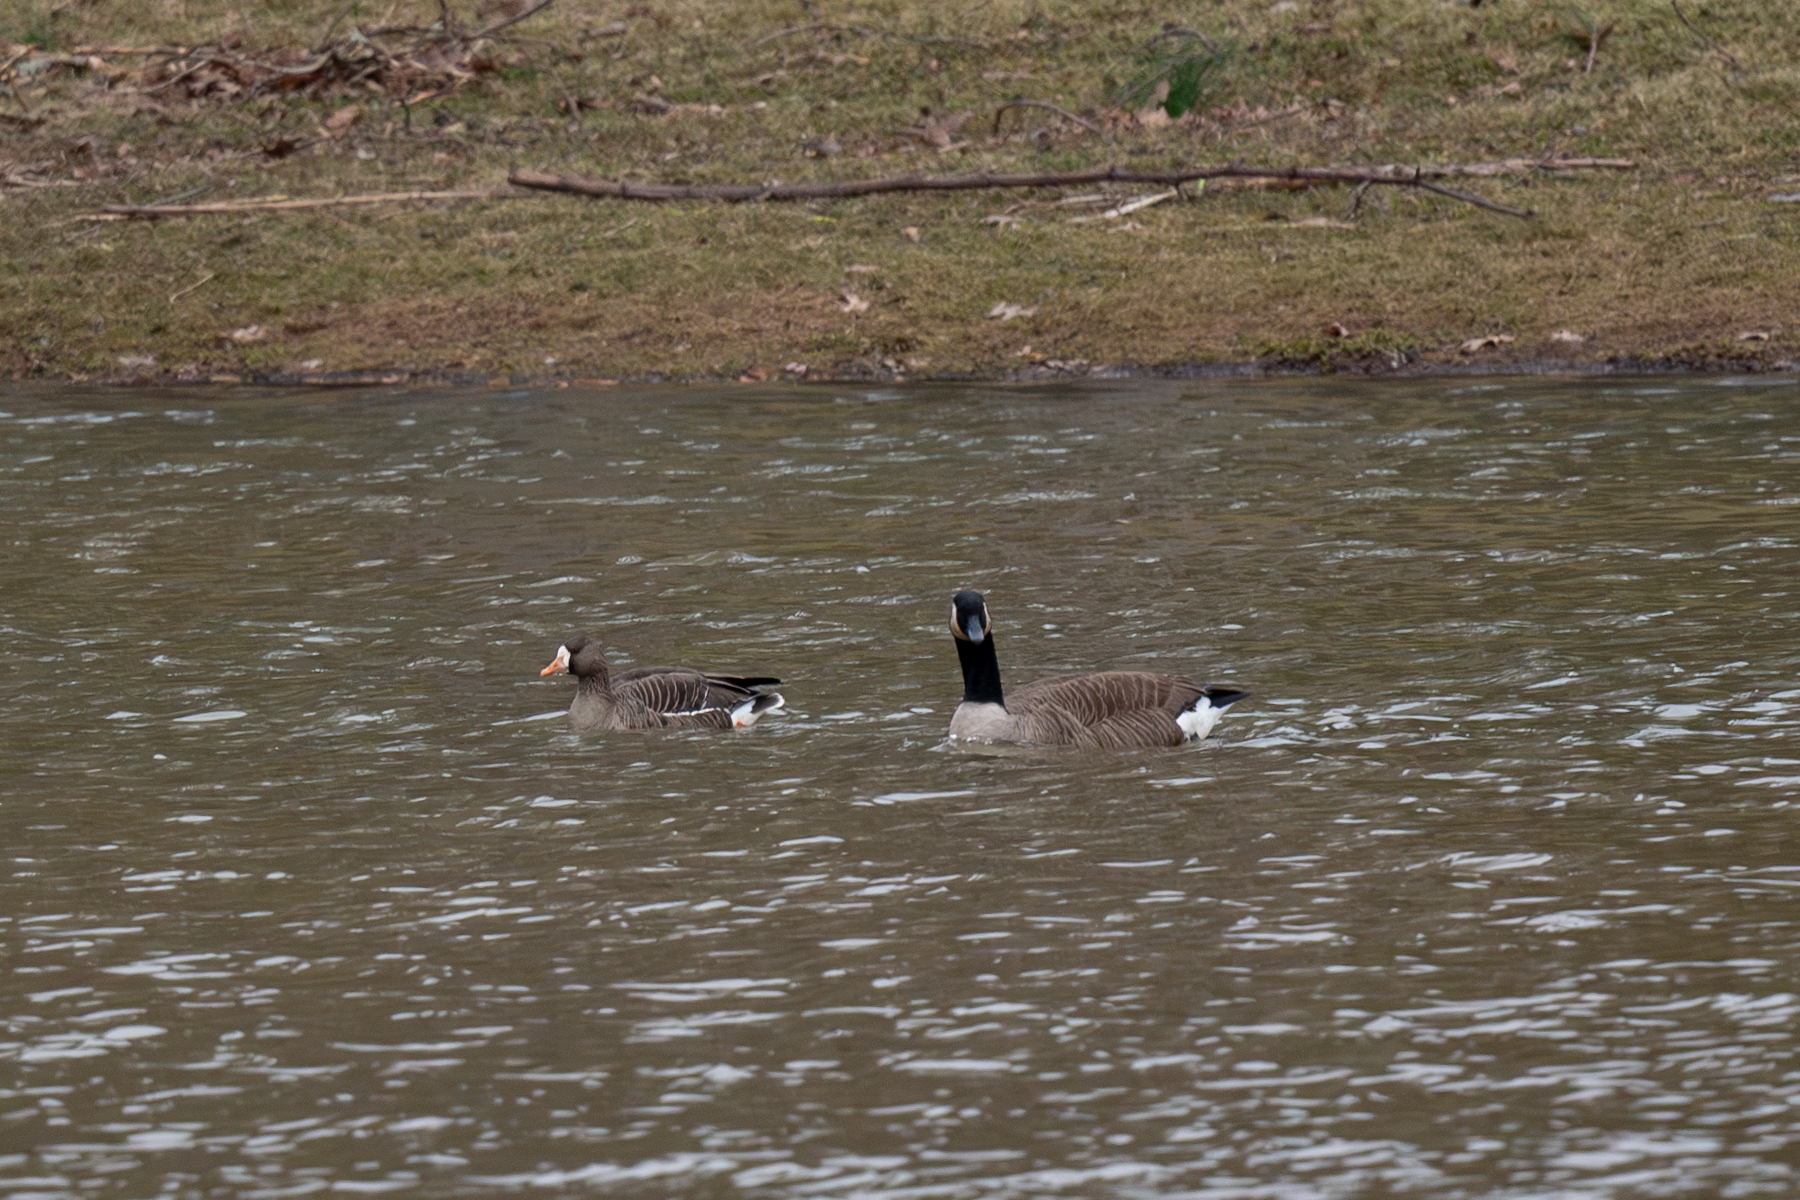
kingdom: Animalia
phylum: Chordata
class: Aves
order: Anseriformes
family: Anatidae
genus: Branta
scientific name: Branta canadensis
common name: Canada goose
